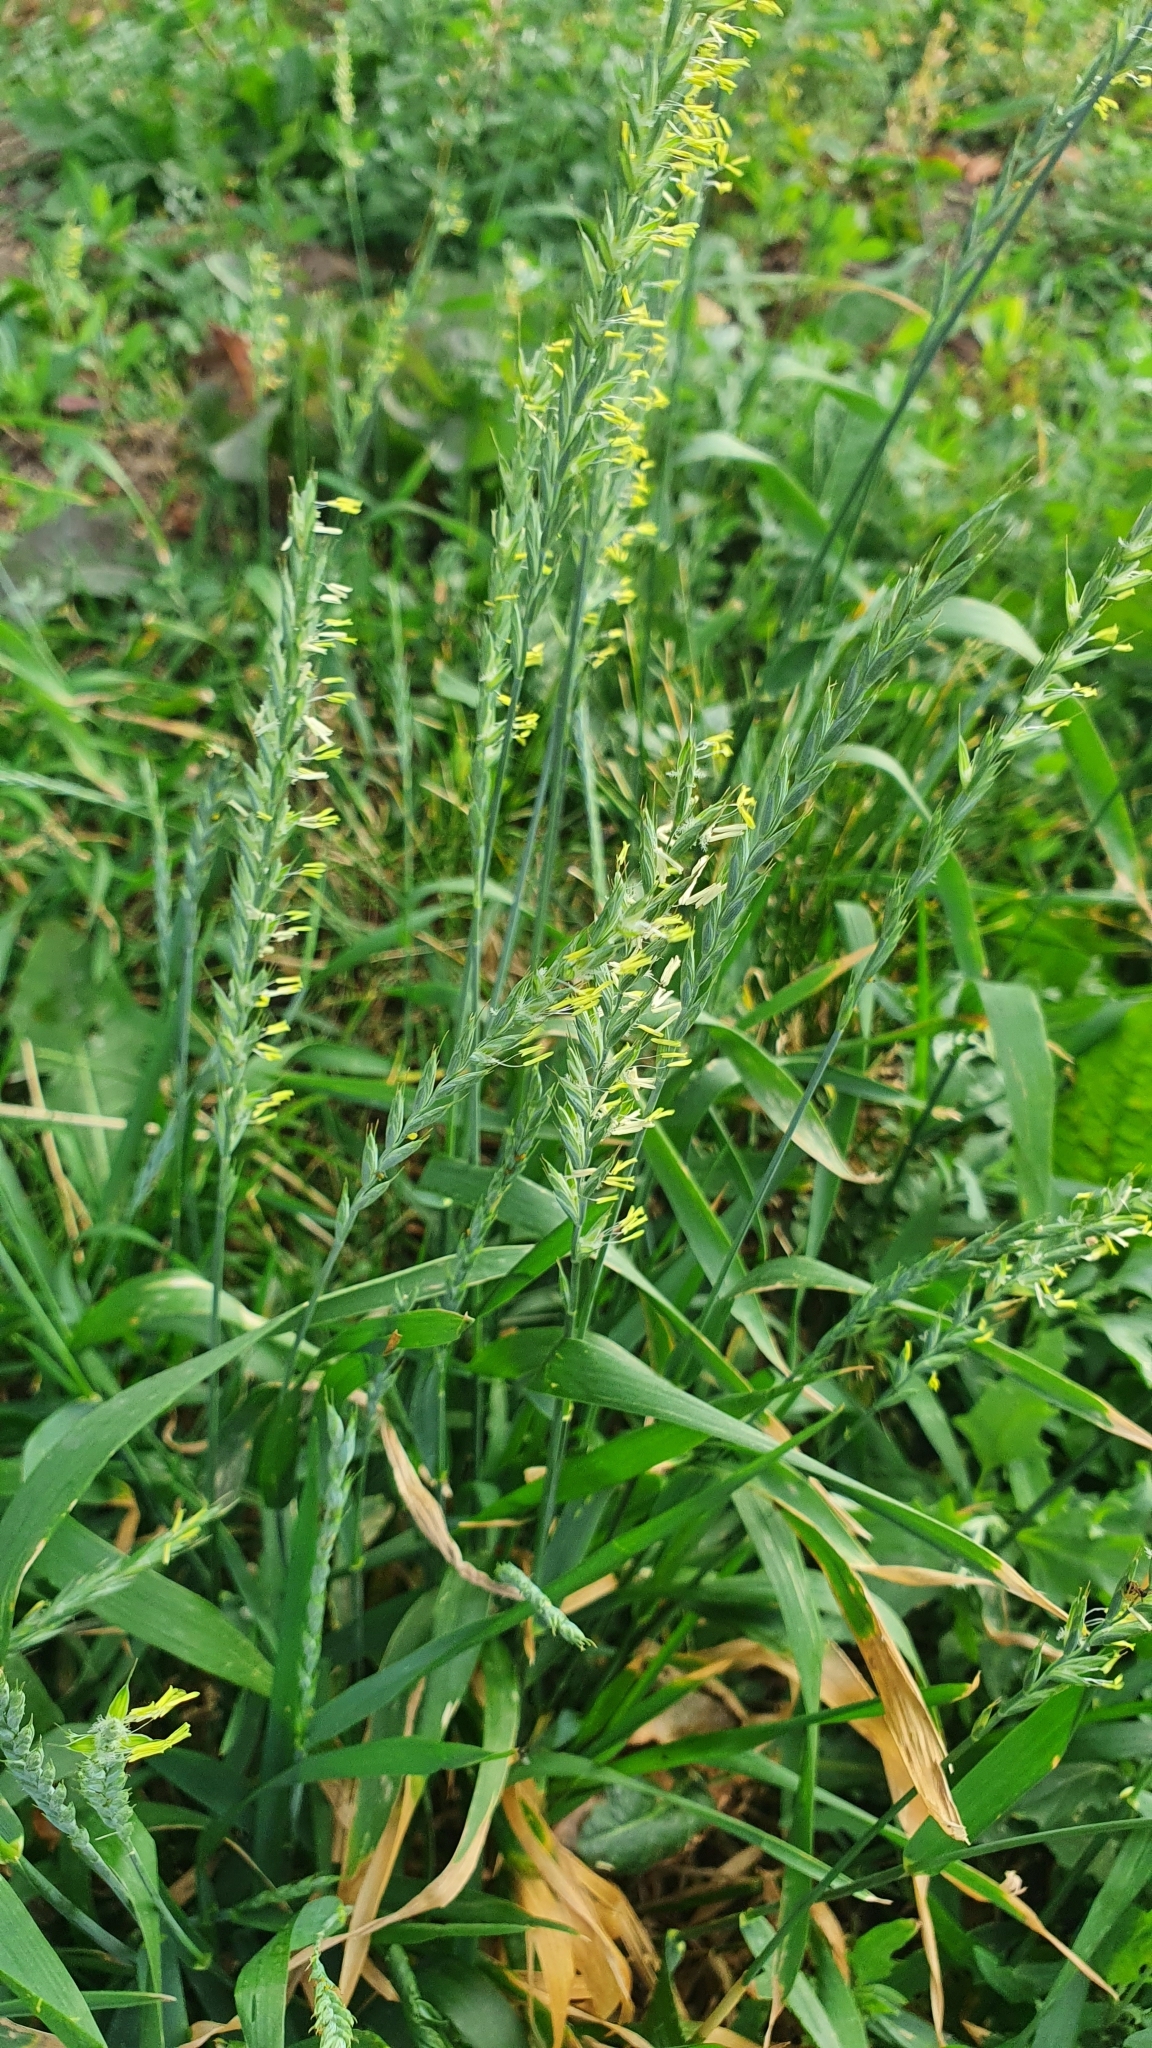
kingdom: Plantae
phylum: Tracheophyta
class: Liliopsida
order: Poales
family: Poaceae
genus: Elymus
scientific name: Elymus repens
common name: Quackgrass
